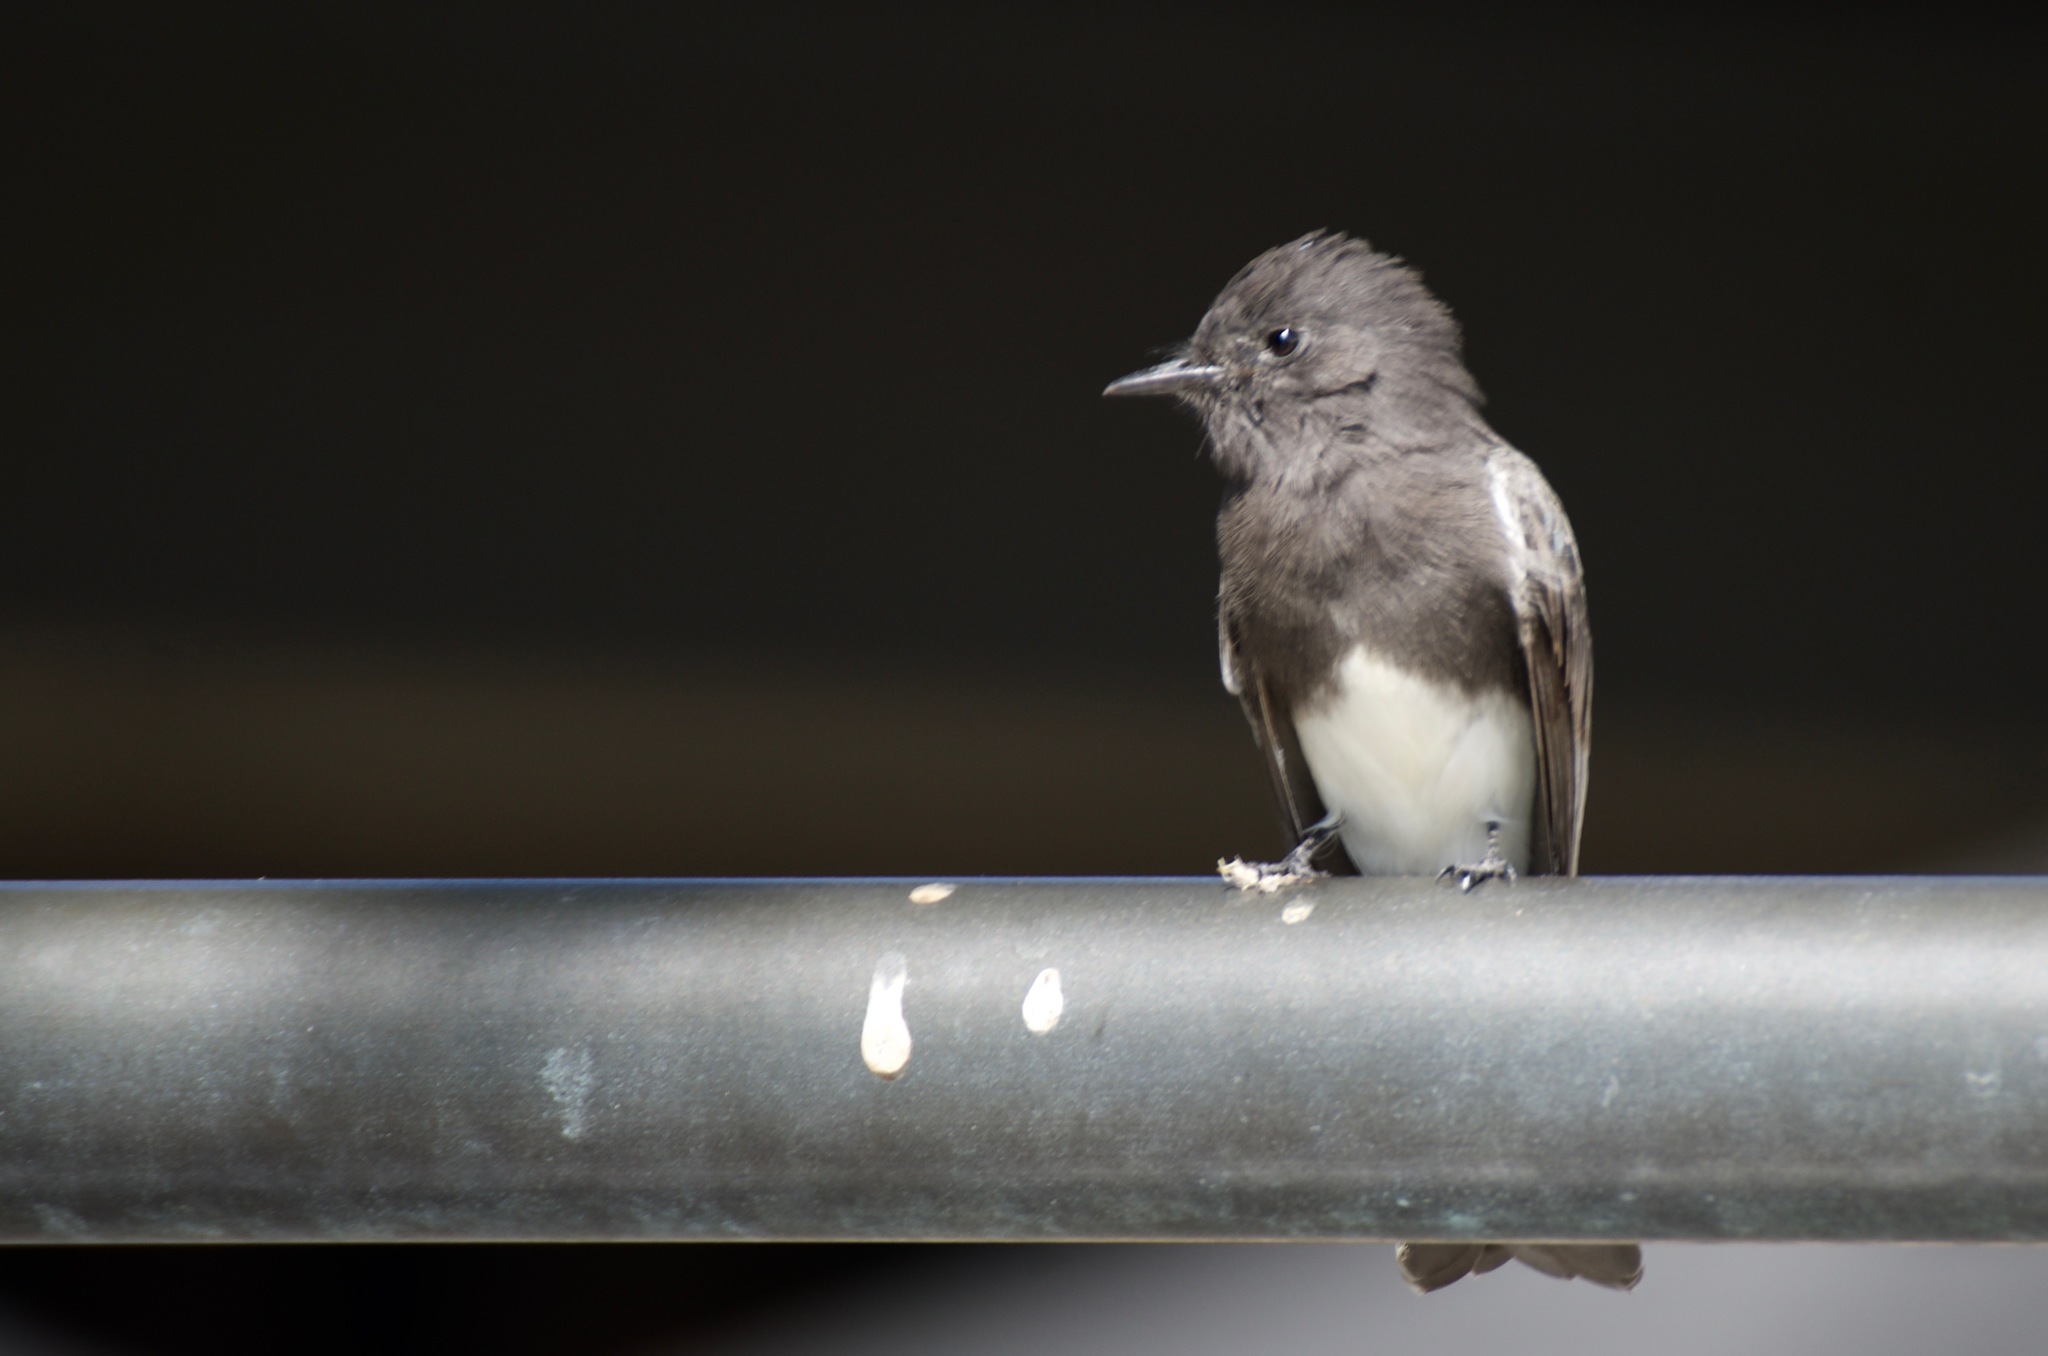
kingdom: Animalia
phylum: Chordata
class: Aves
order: Passeriformes
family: Tyrannidae
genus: Sayornis
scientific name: Sayornis nigricans
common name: Black phoebe
